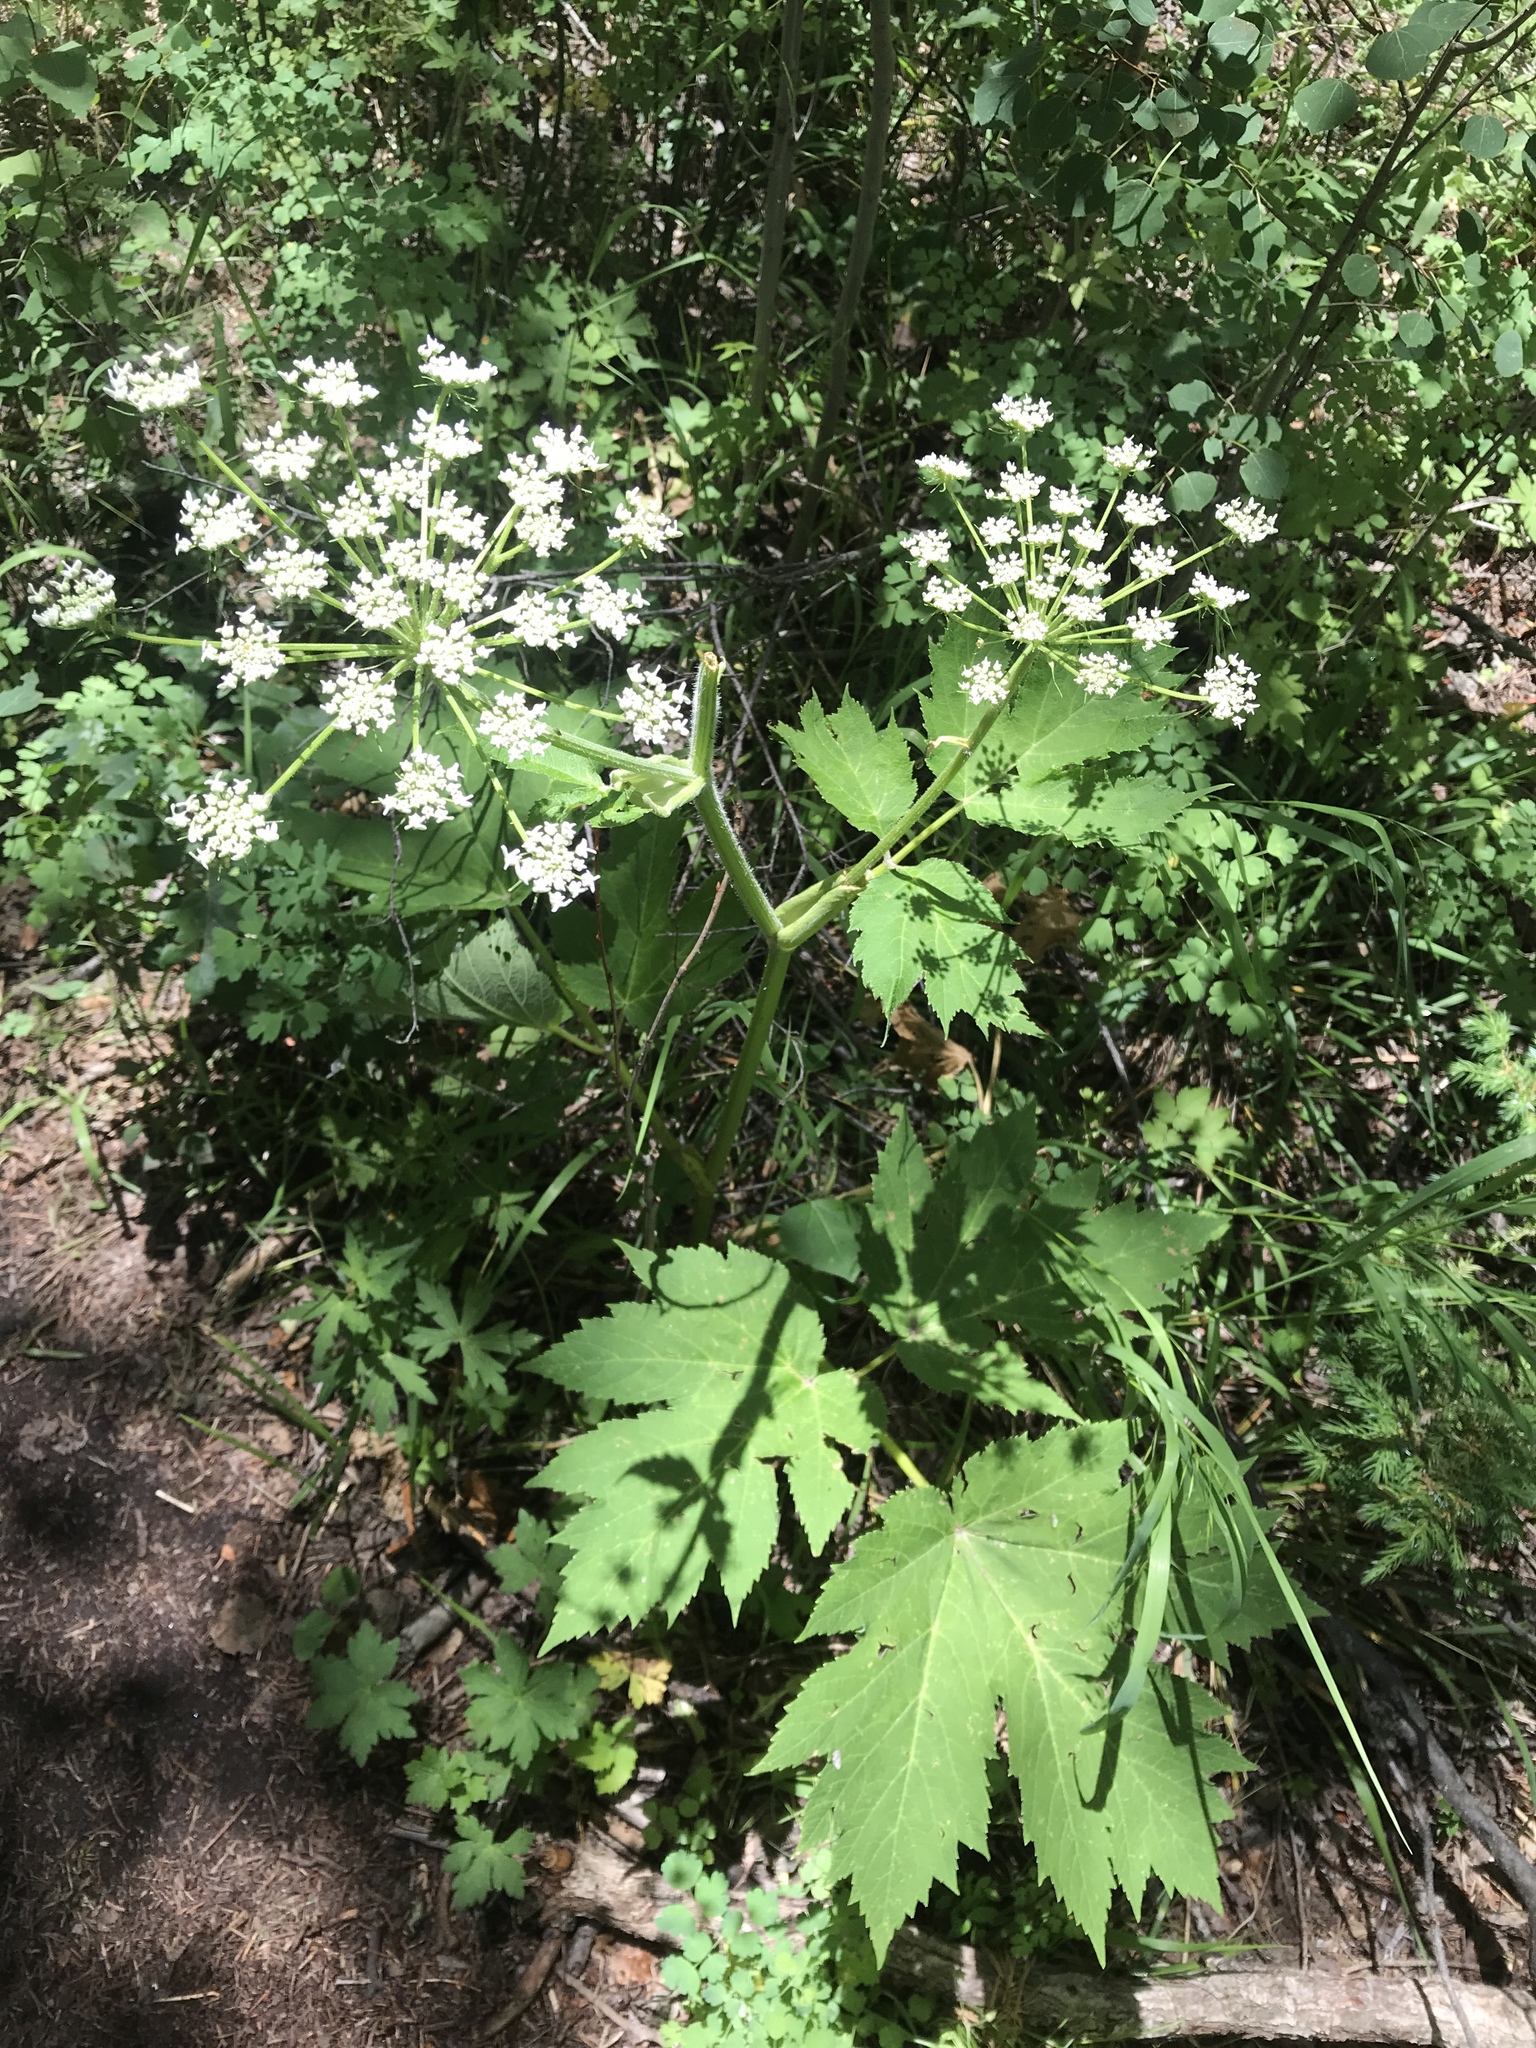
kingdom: Plantae
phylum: Tracheophyta
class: Magnoliopsida
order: Apiales
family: Apiaceae
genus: Heracleum
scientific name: Heracleum maximum
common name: American cow parsnip
